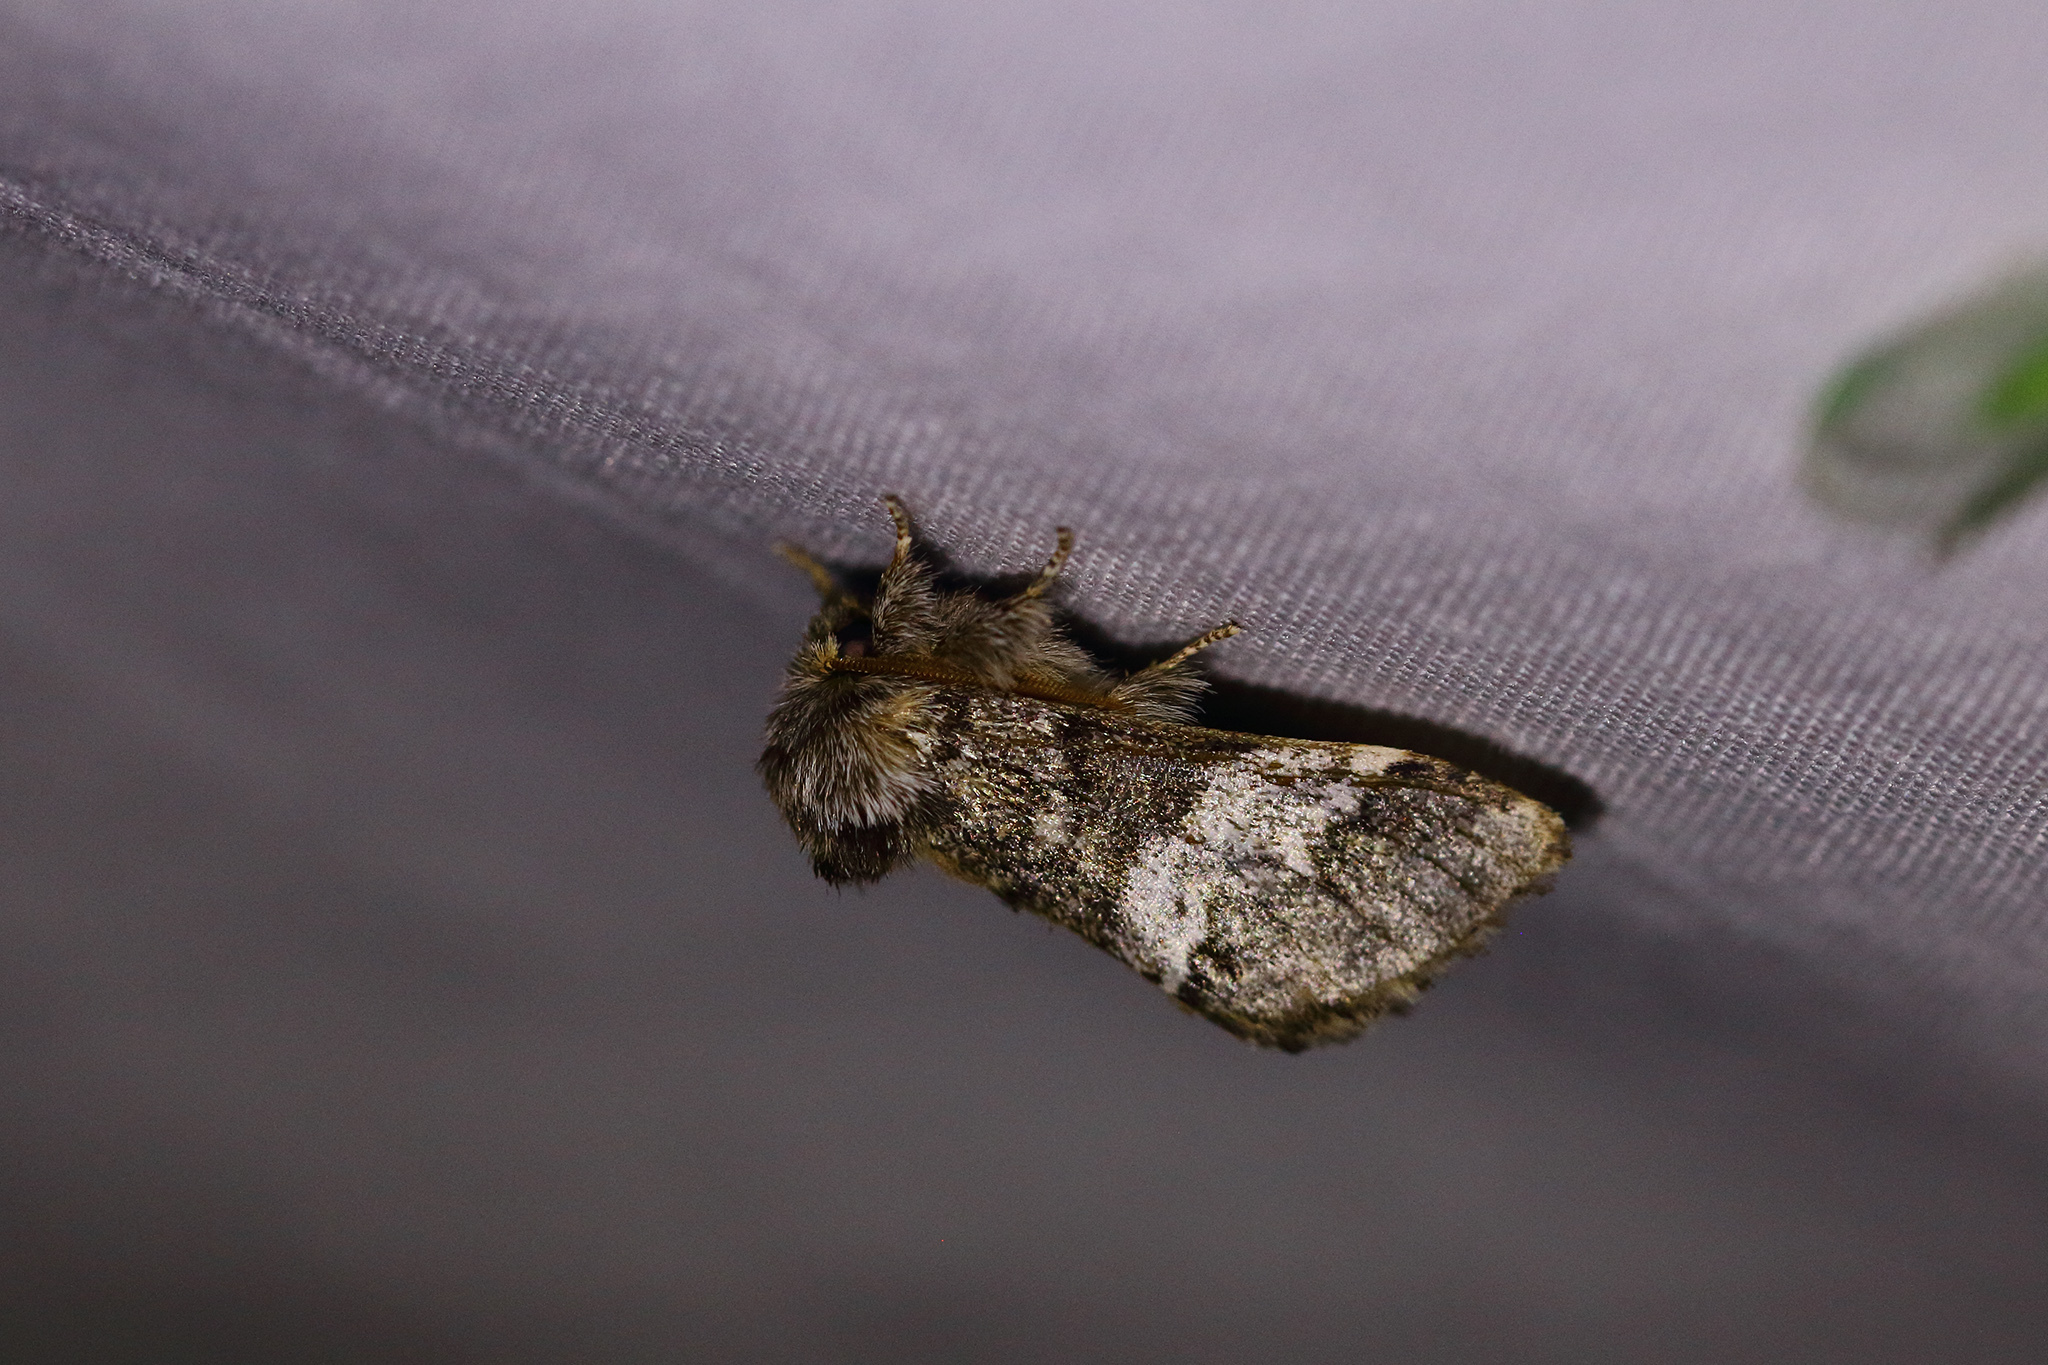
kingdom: Animalia
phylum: Arthropoda
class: Insecta
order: Lepidoptera
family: Notodontidae
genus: Drymonia
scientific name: Drymonia dodonaea
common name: Marbled brown
